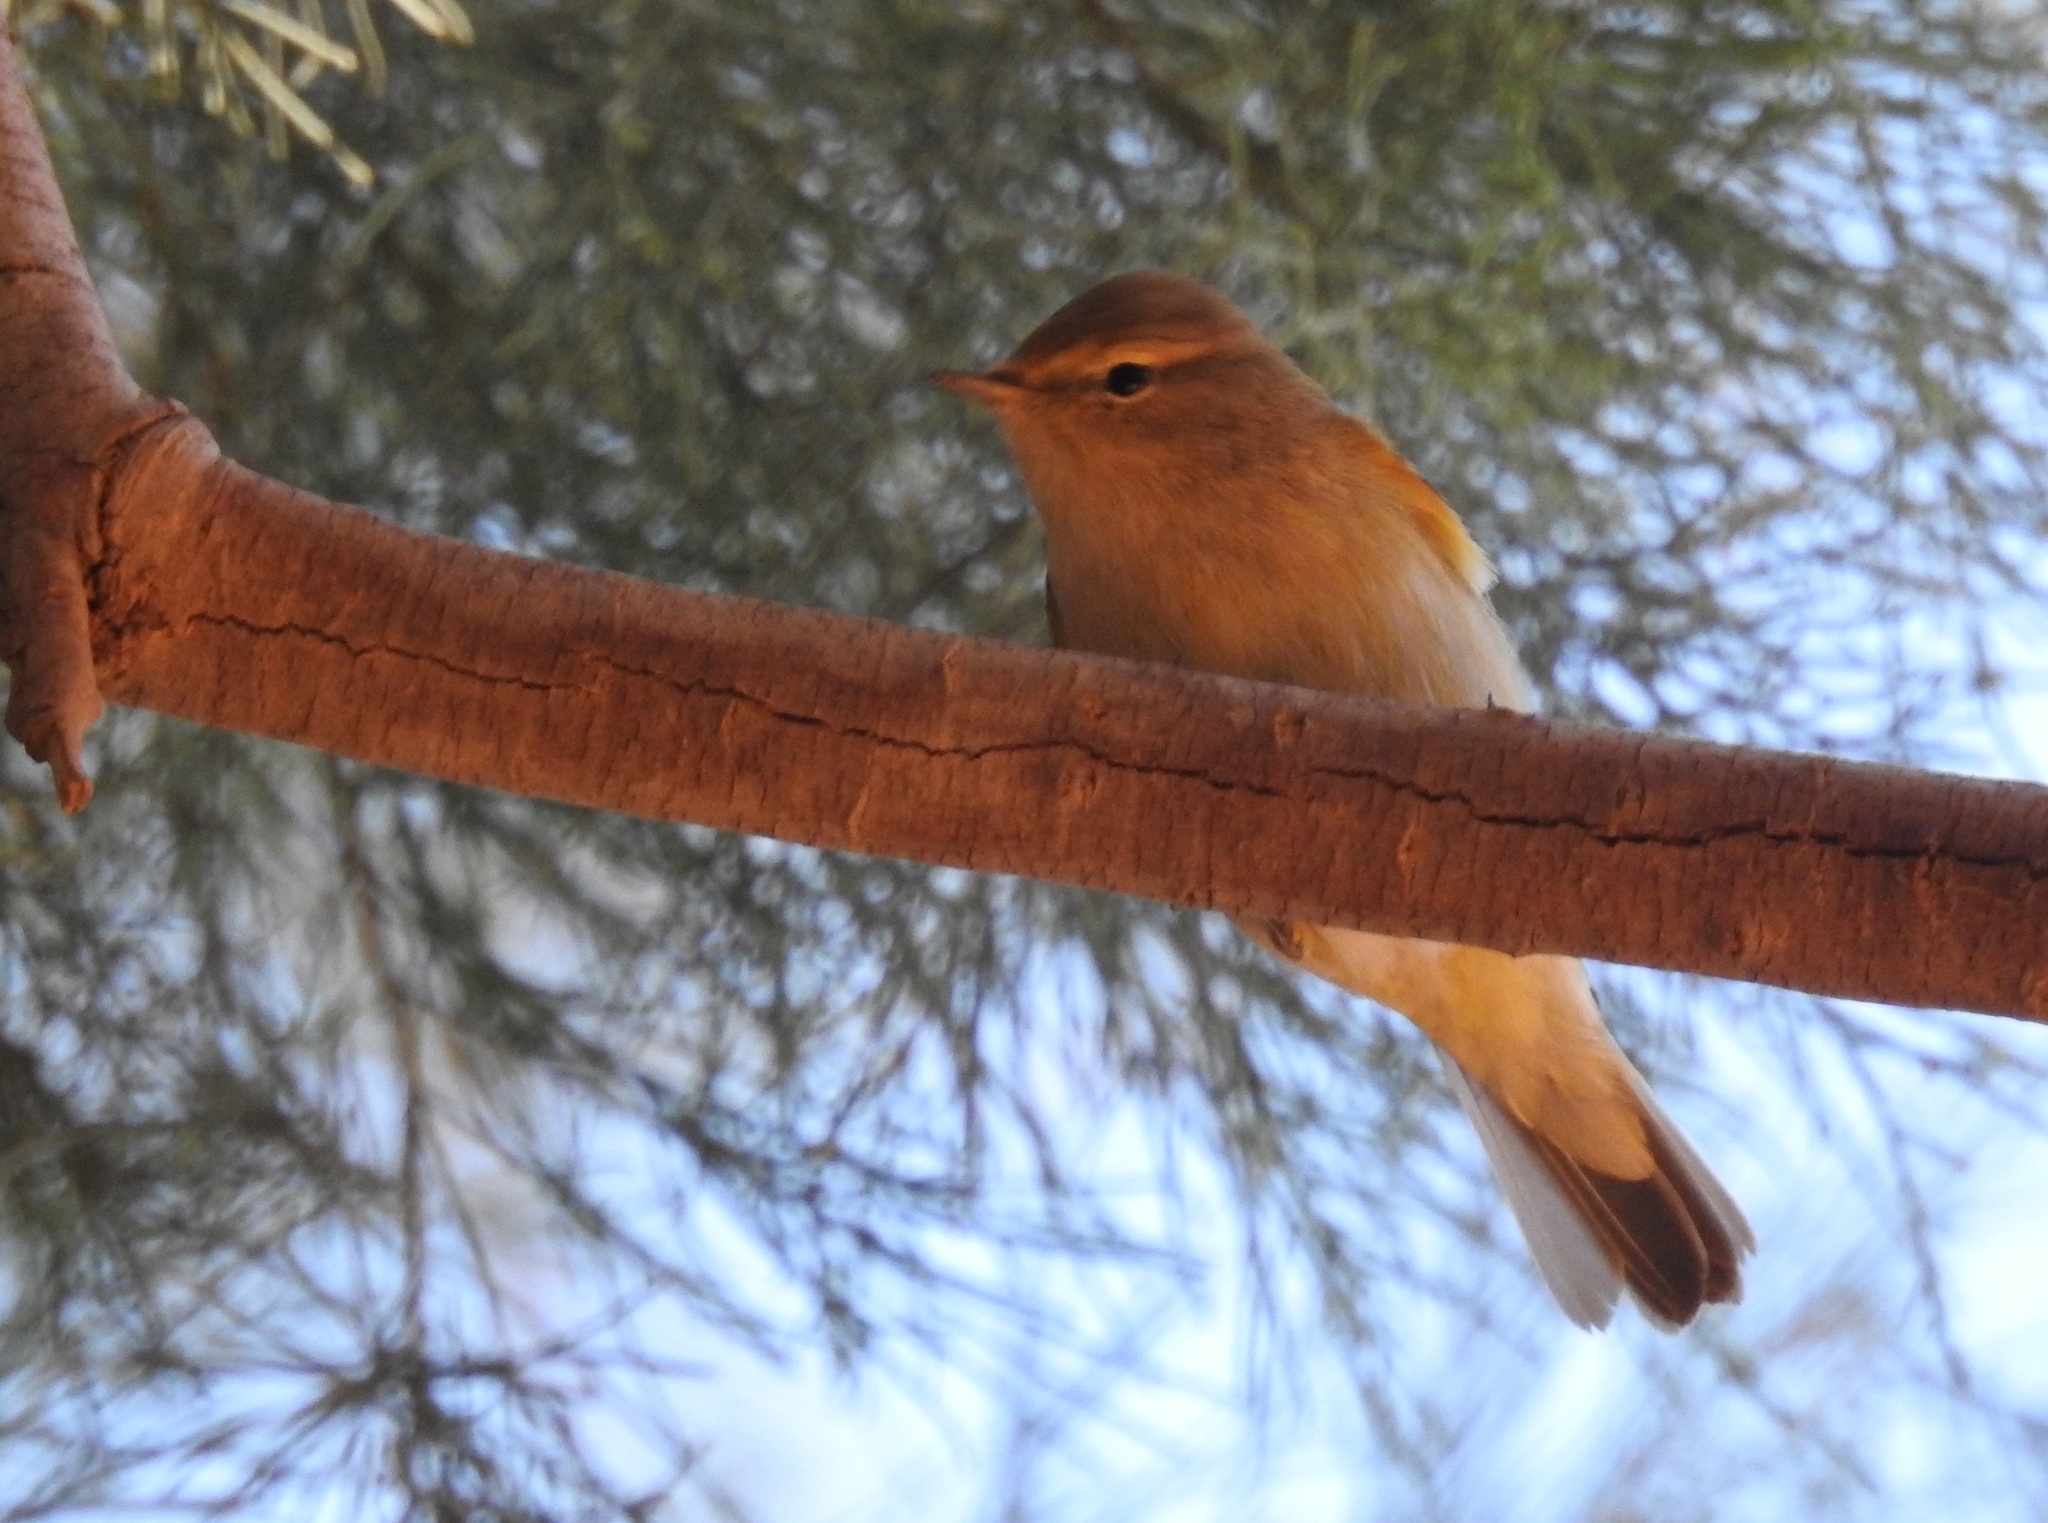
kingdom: Animalia
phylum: Chordata
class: Aves
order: Passeriformes
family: Phylloscopidae
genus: Phylloscopus
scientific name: Phylloscopus collybita
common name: Common chiffchaff
